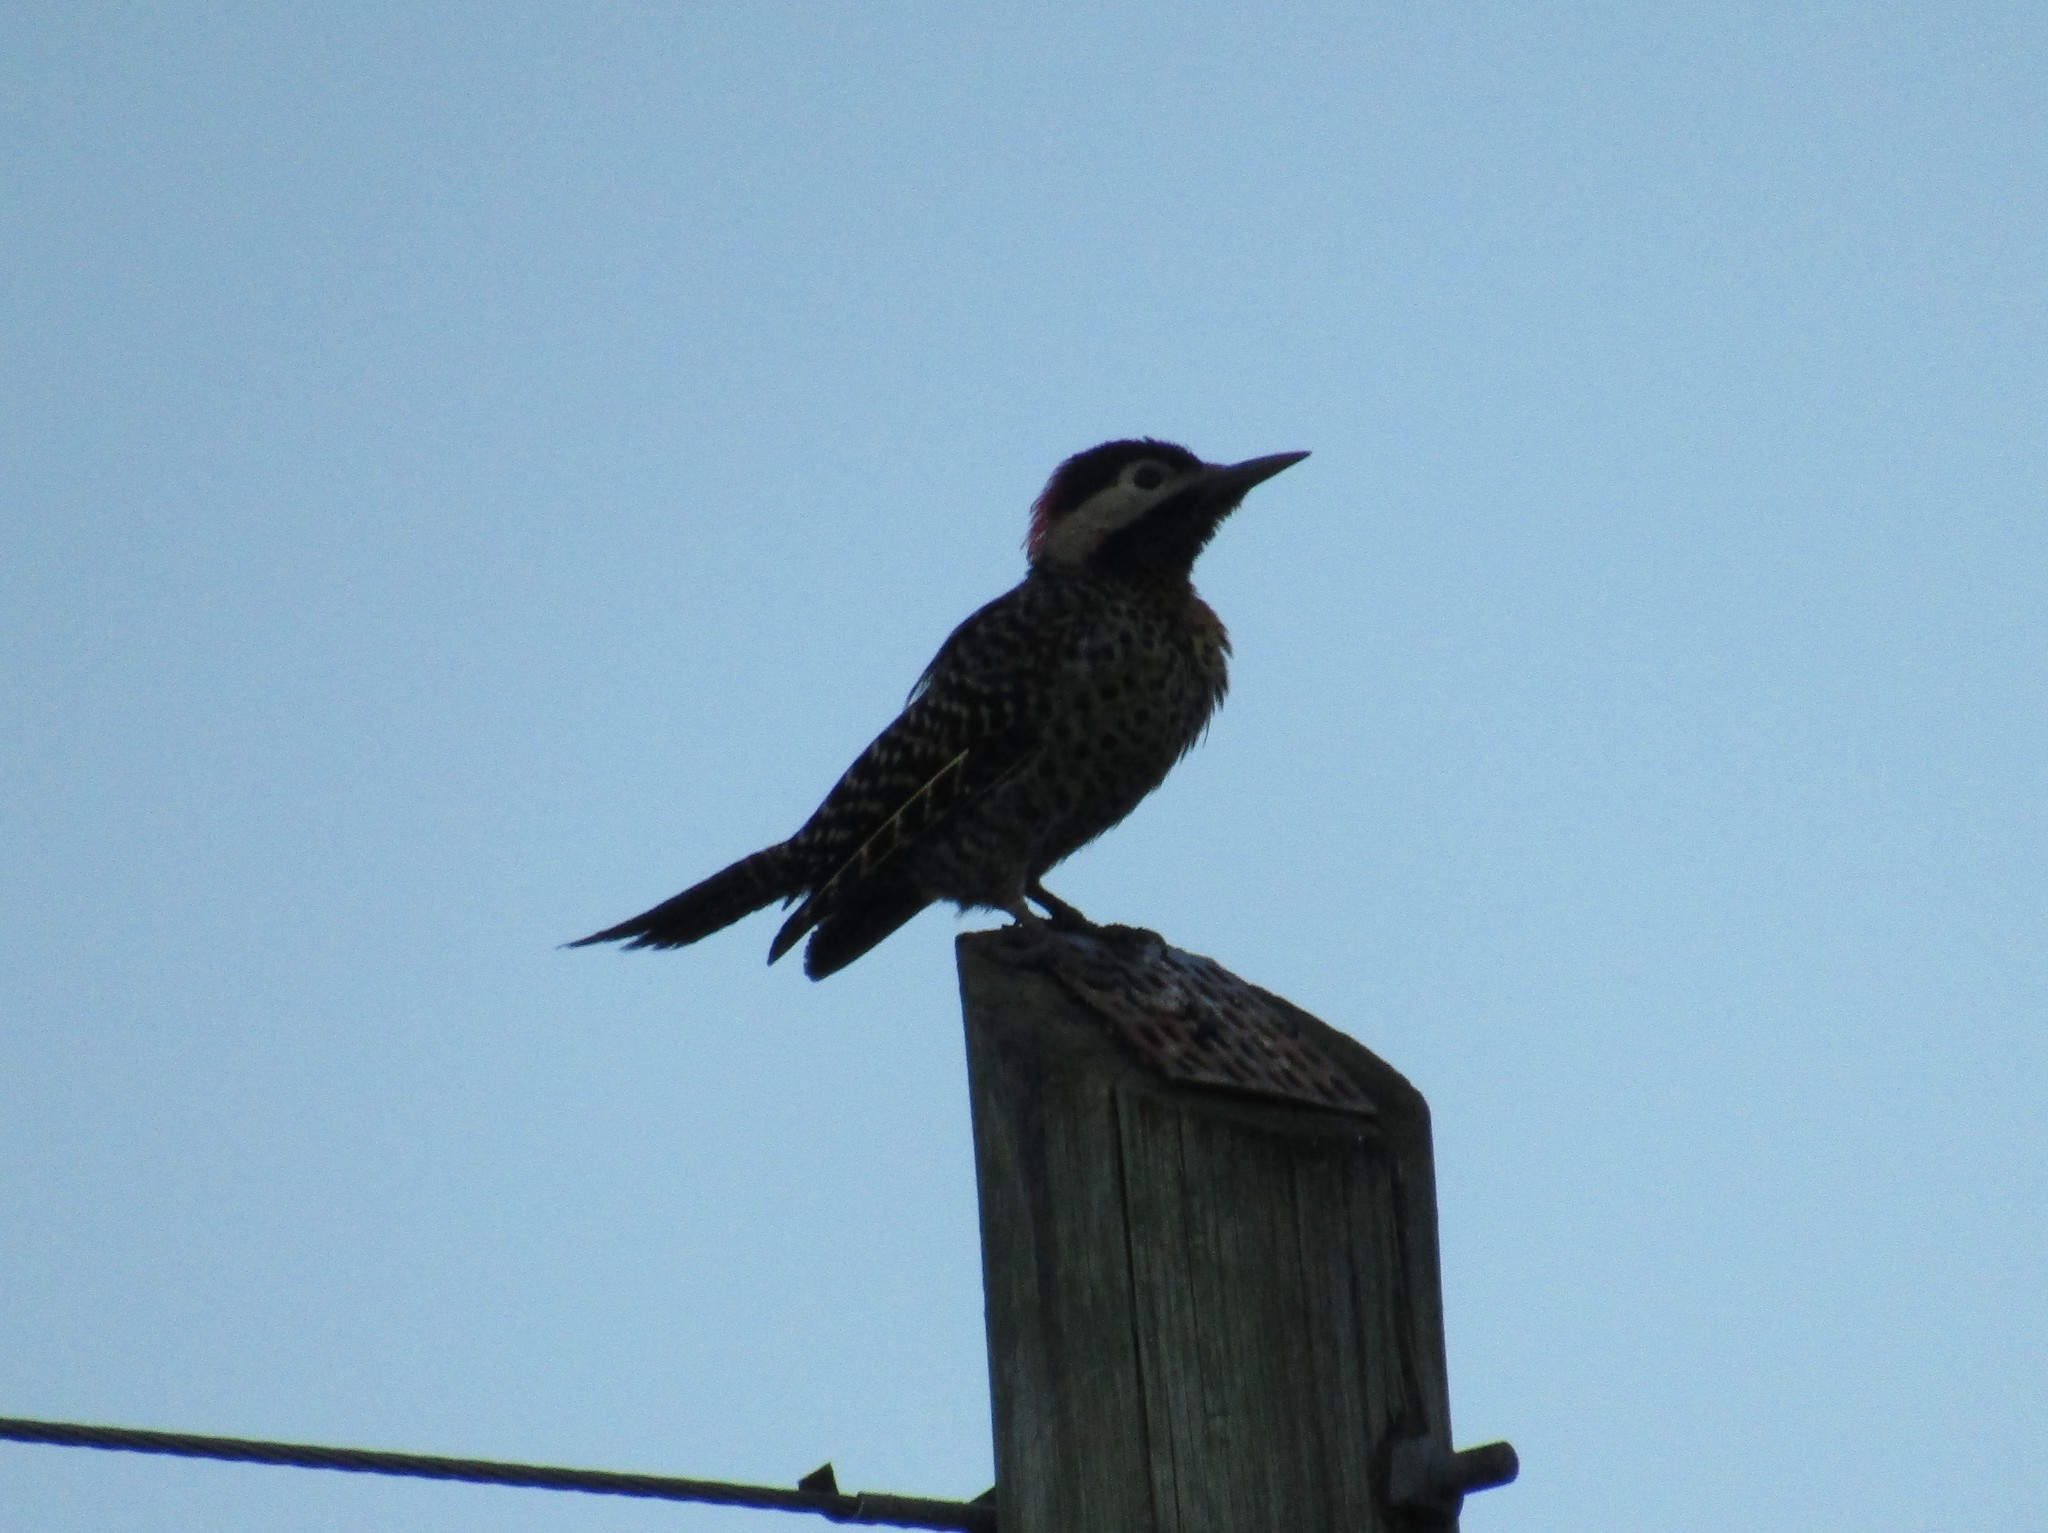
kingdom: Animalia
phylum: Chordata
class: Aves
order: Piciformes
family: Picidae
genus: Colaptes
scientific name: Colaptes melanochloros
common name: Green-barred woodpecker
